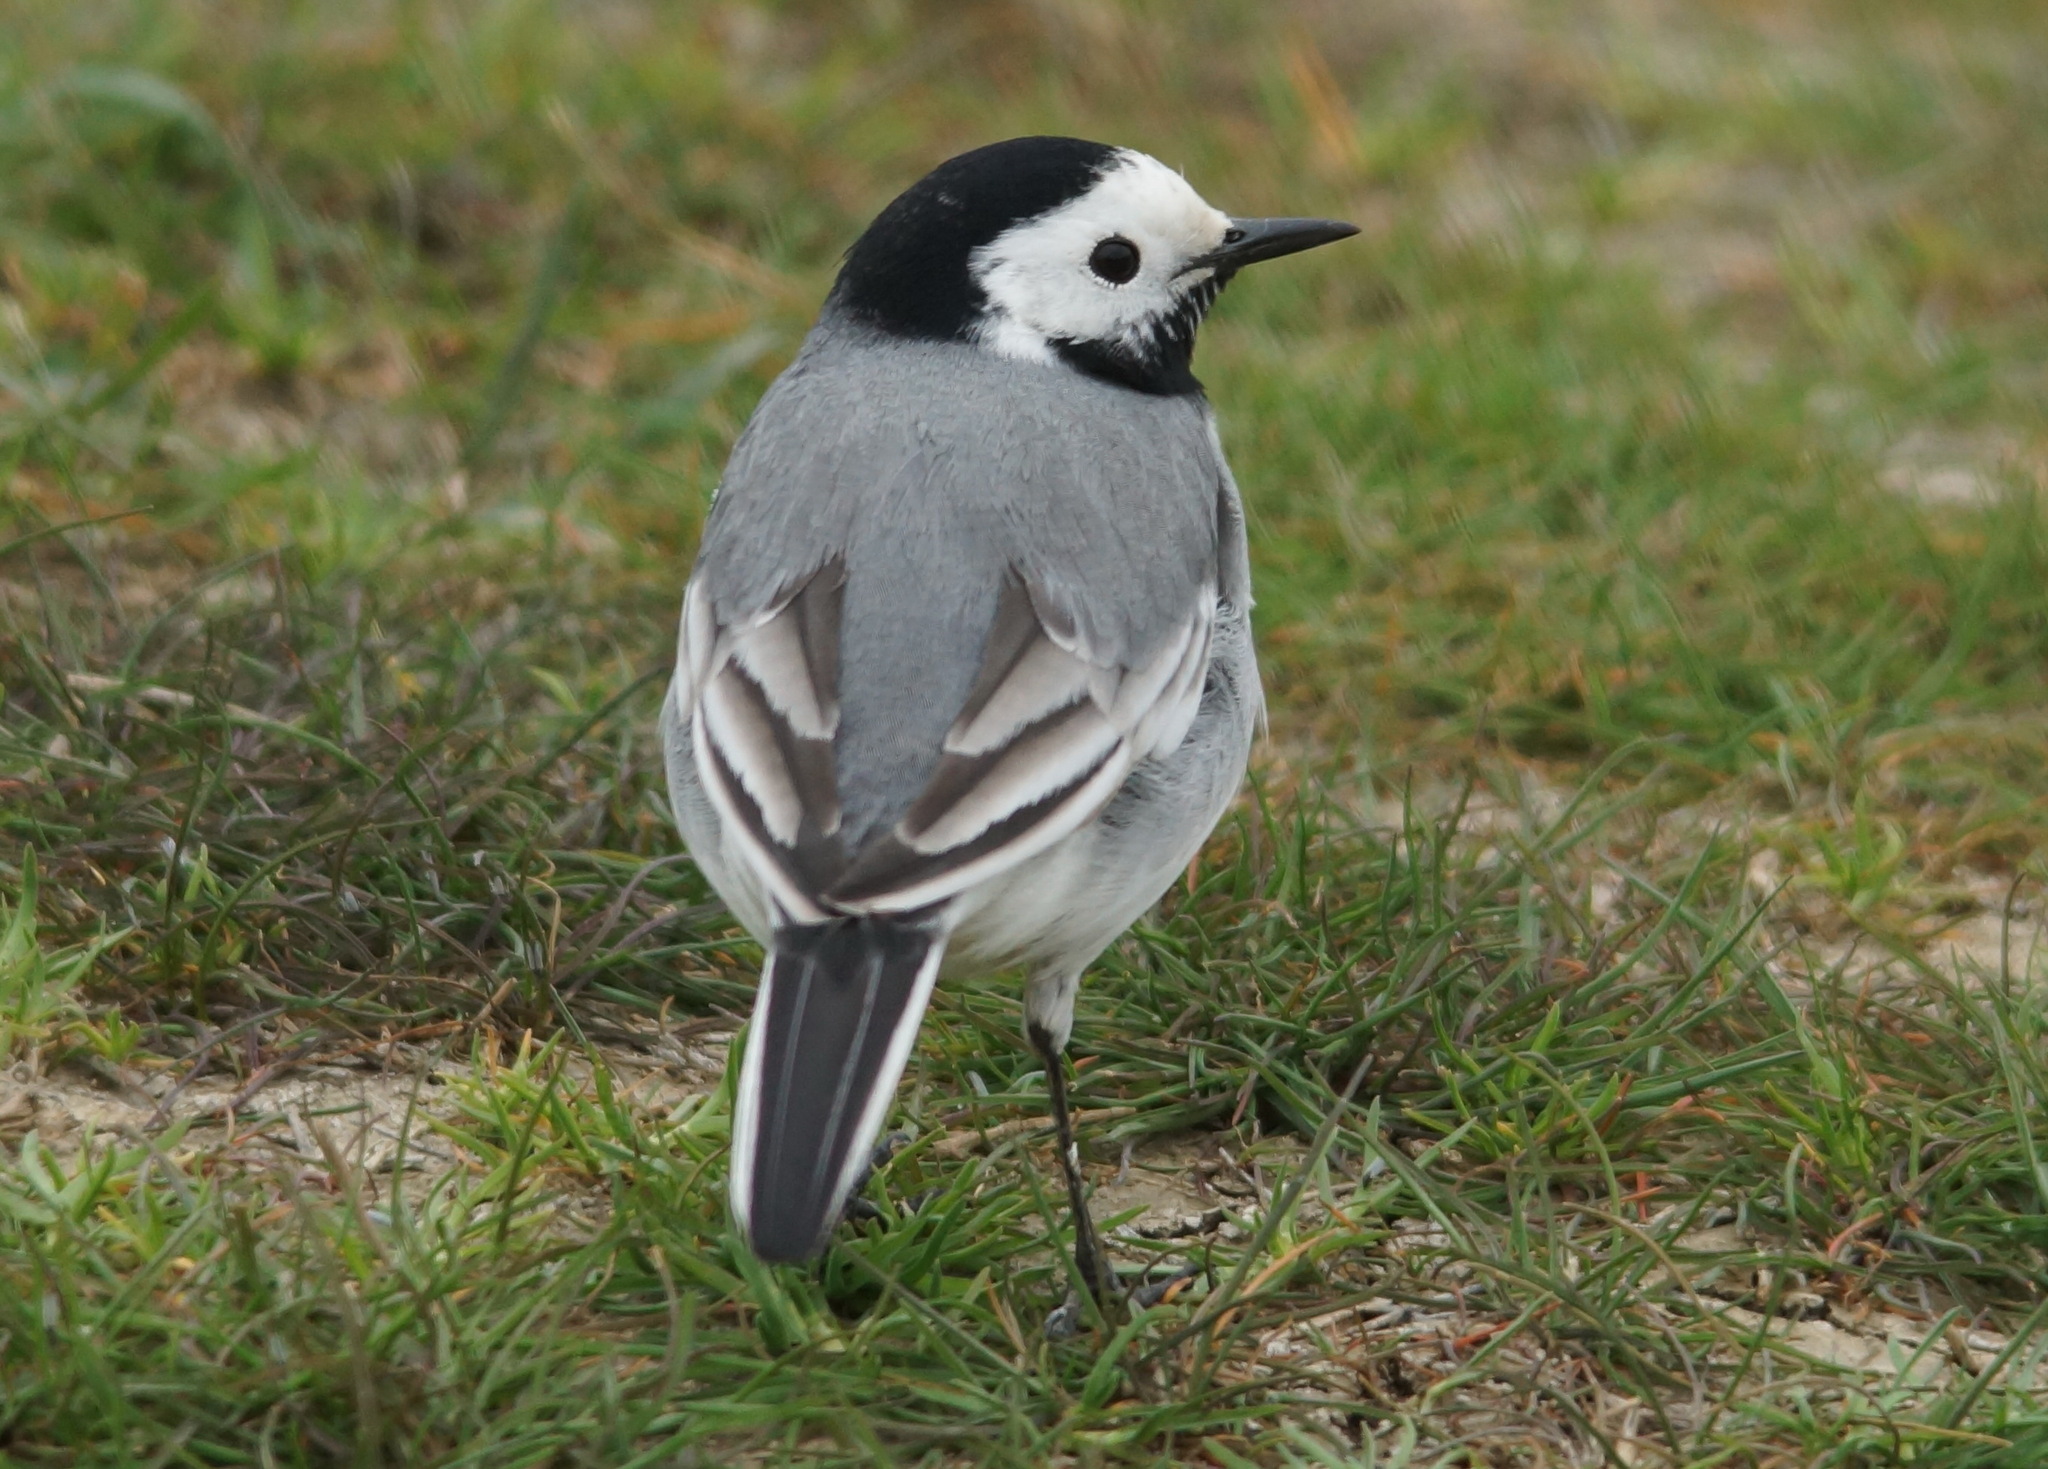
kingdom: Animalia
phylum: Chordata
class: Aves
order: Passeriformes
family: Motacillidae
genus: Motacilla
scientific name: Motacilla alba
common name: White wagtail
